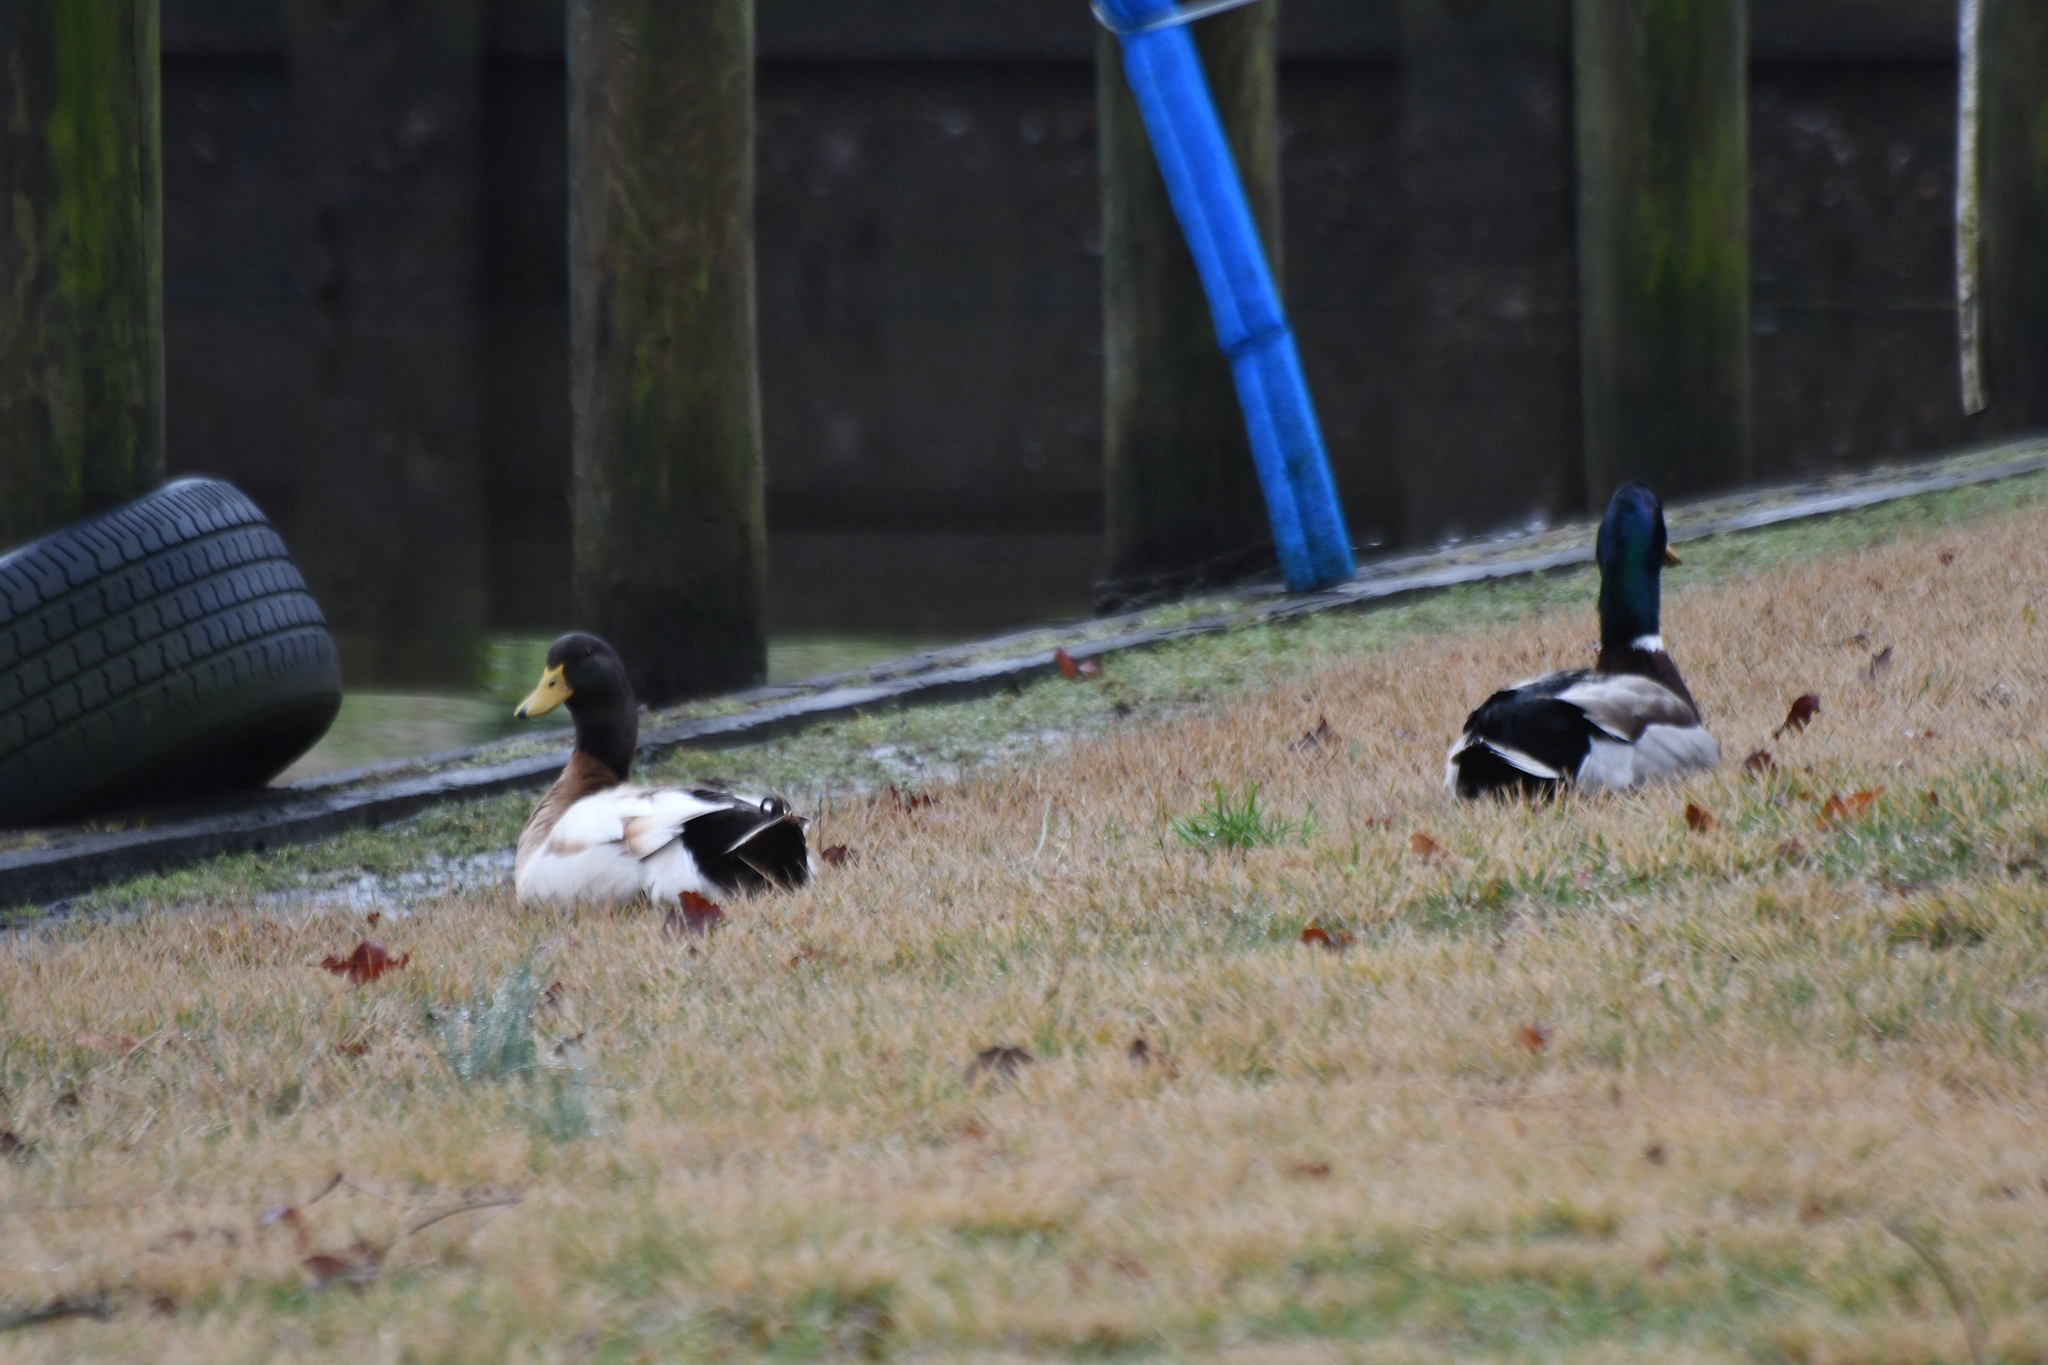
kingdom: Animalia
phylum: Chordata
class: Aves
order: Anseriformes
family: Anatidae
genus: Anas
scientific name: Anas platyrhynchos
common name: Mallard
